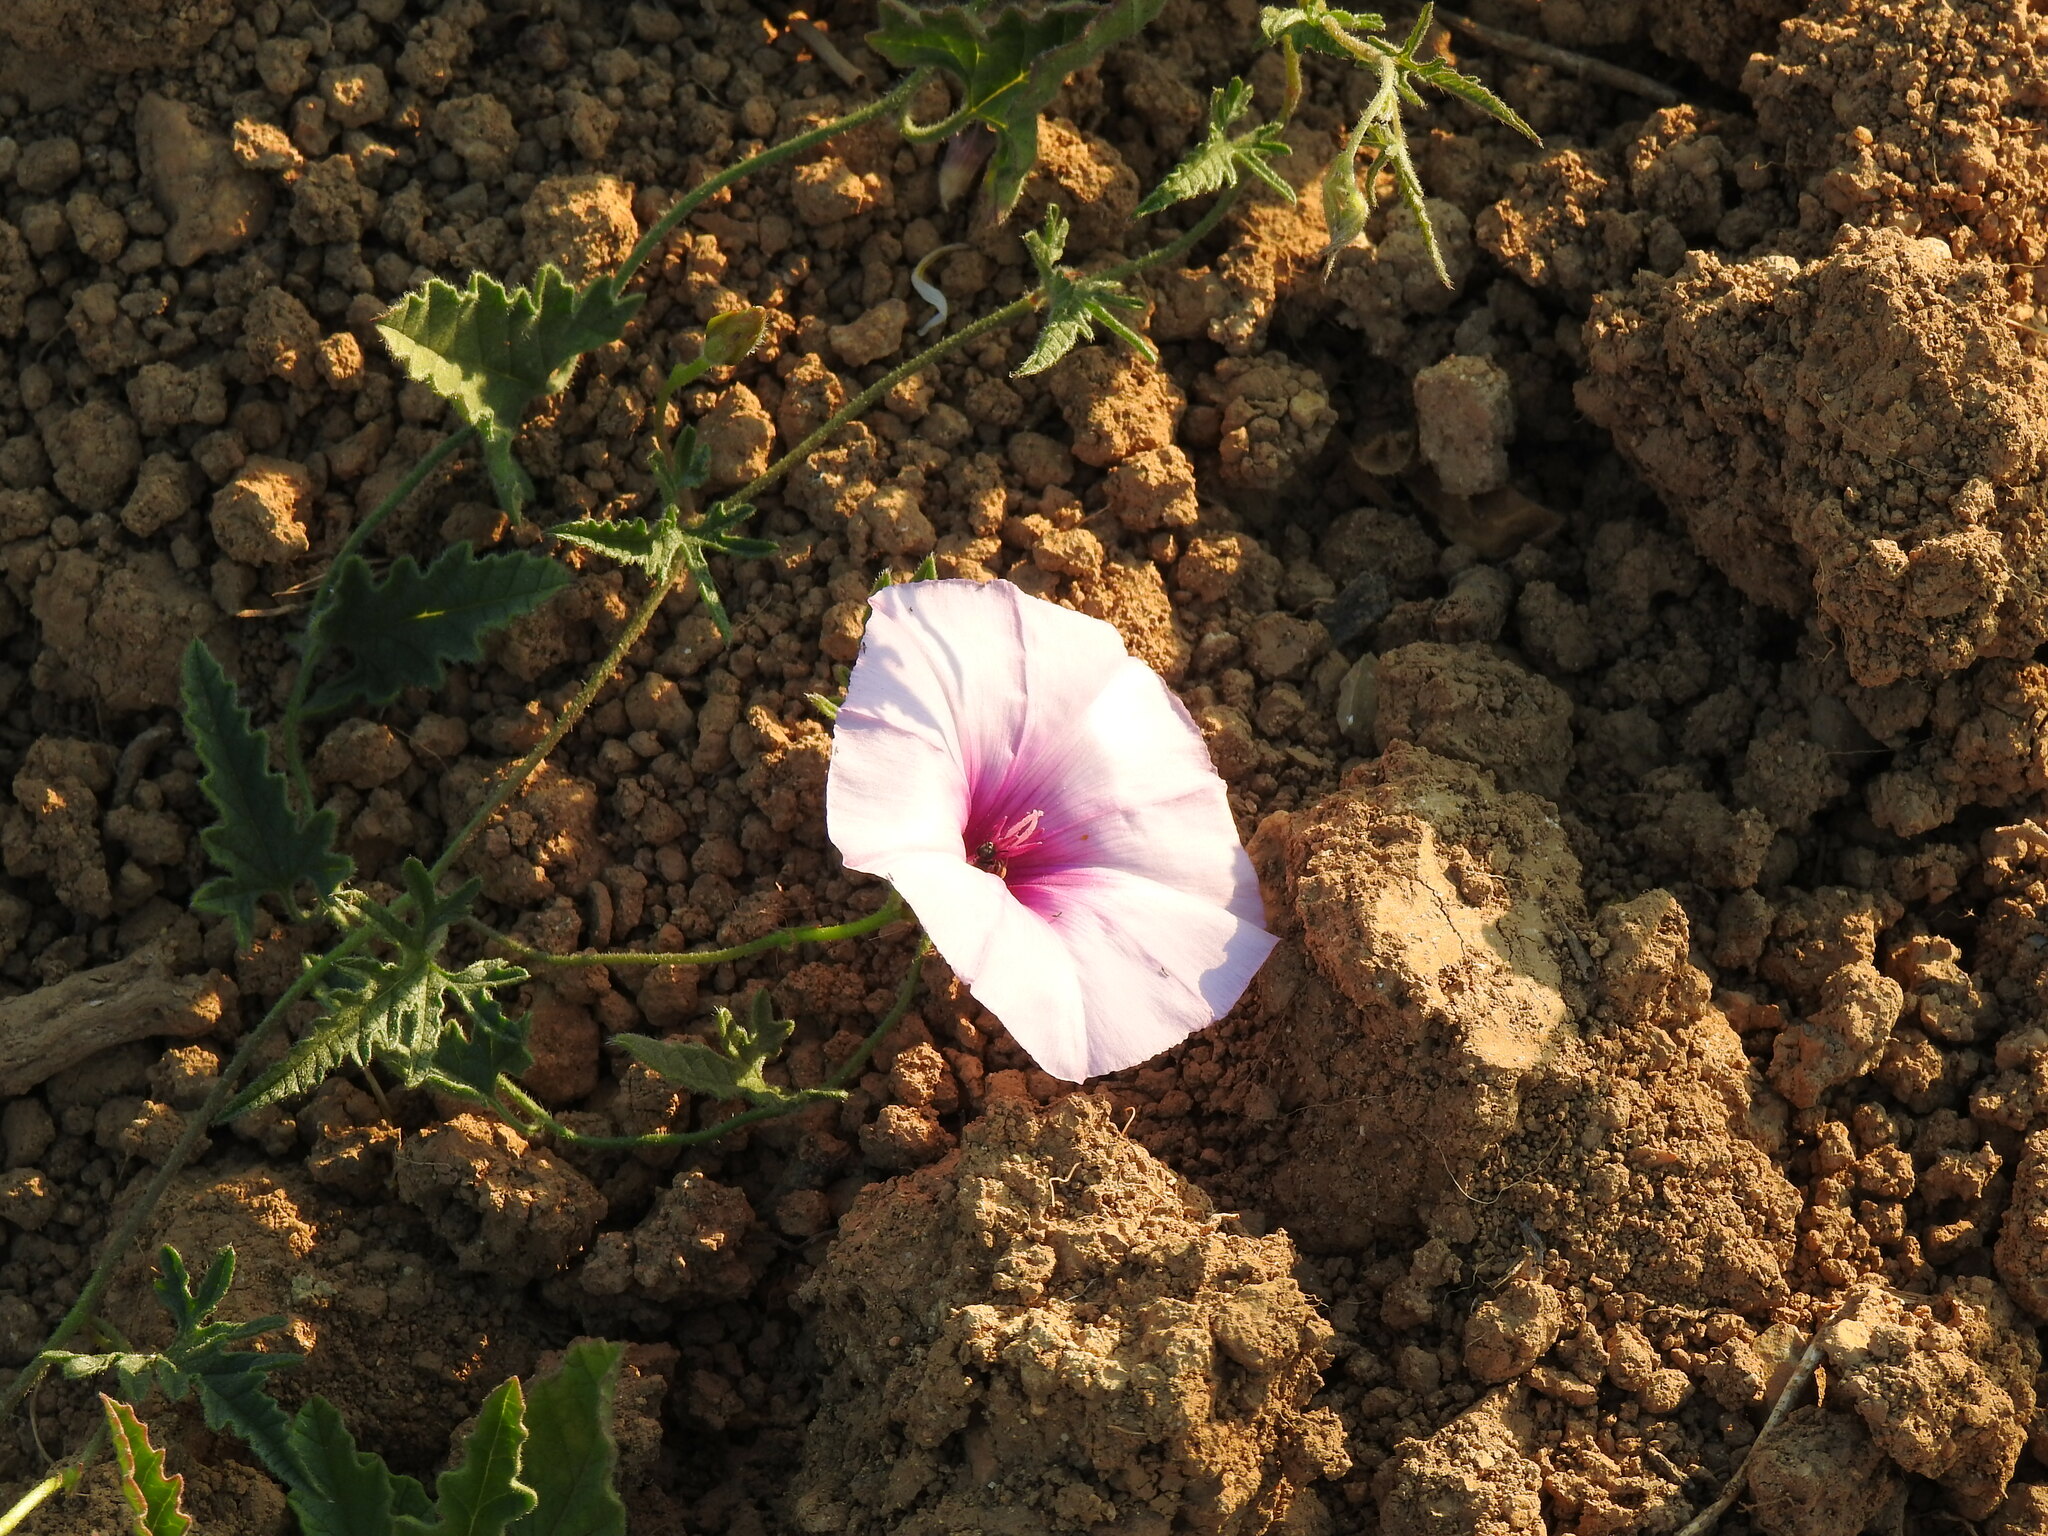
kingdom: Plantae
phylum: Tracheophyta
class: Magnoliopsida
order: Solanales
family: Convolvulaceae
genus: Convolvulus
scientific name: Convolvulus althaeoides
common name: Mallow bindweed
